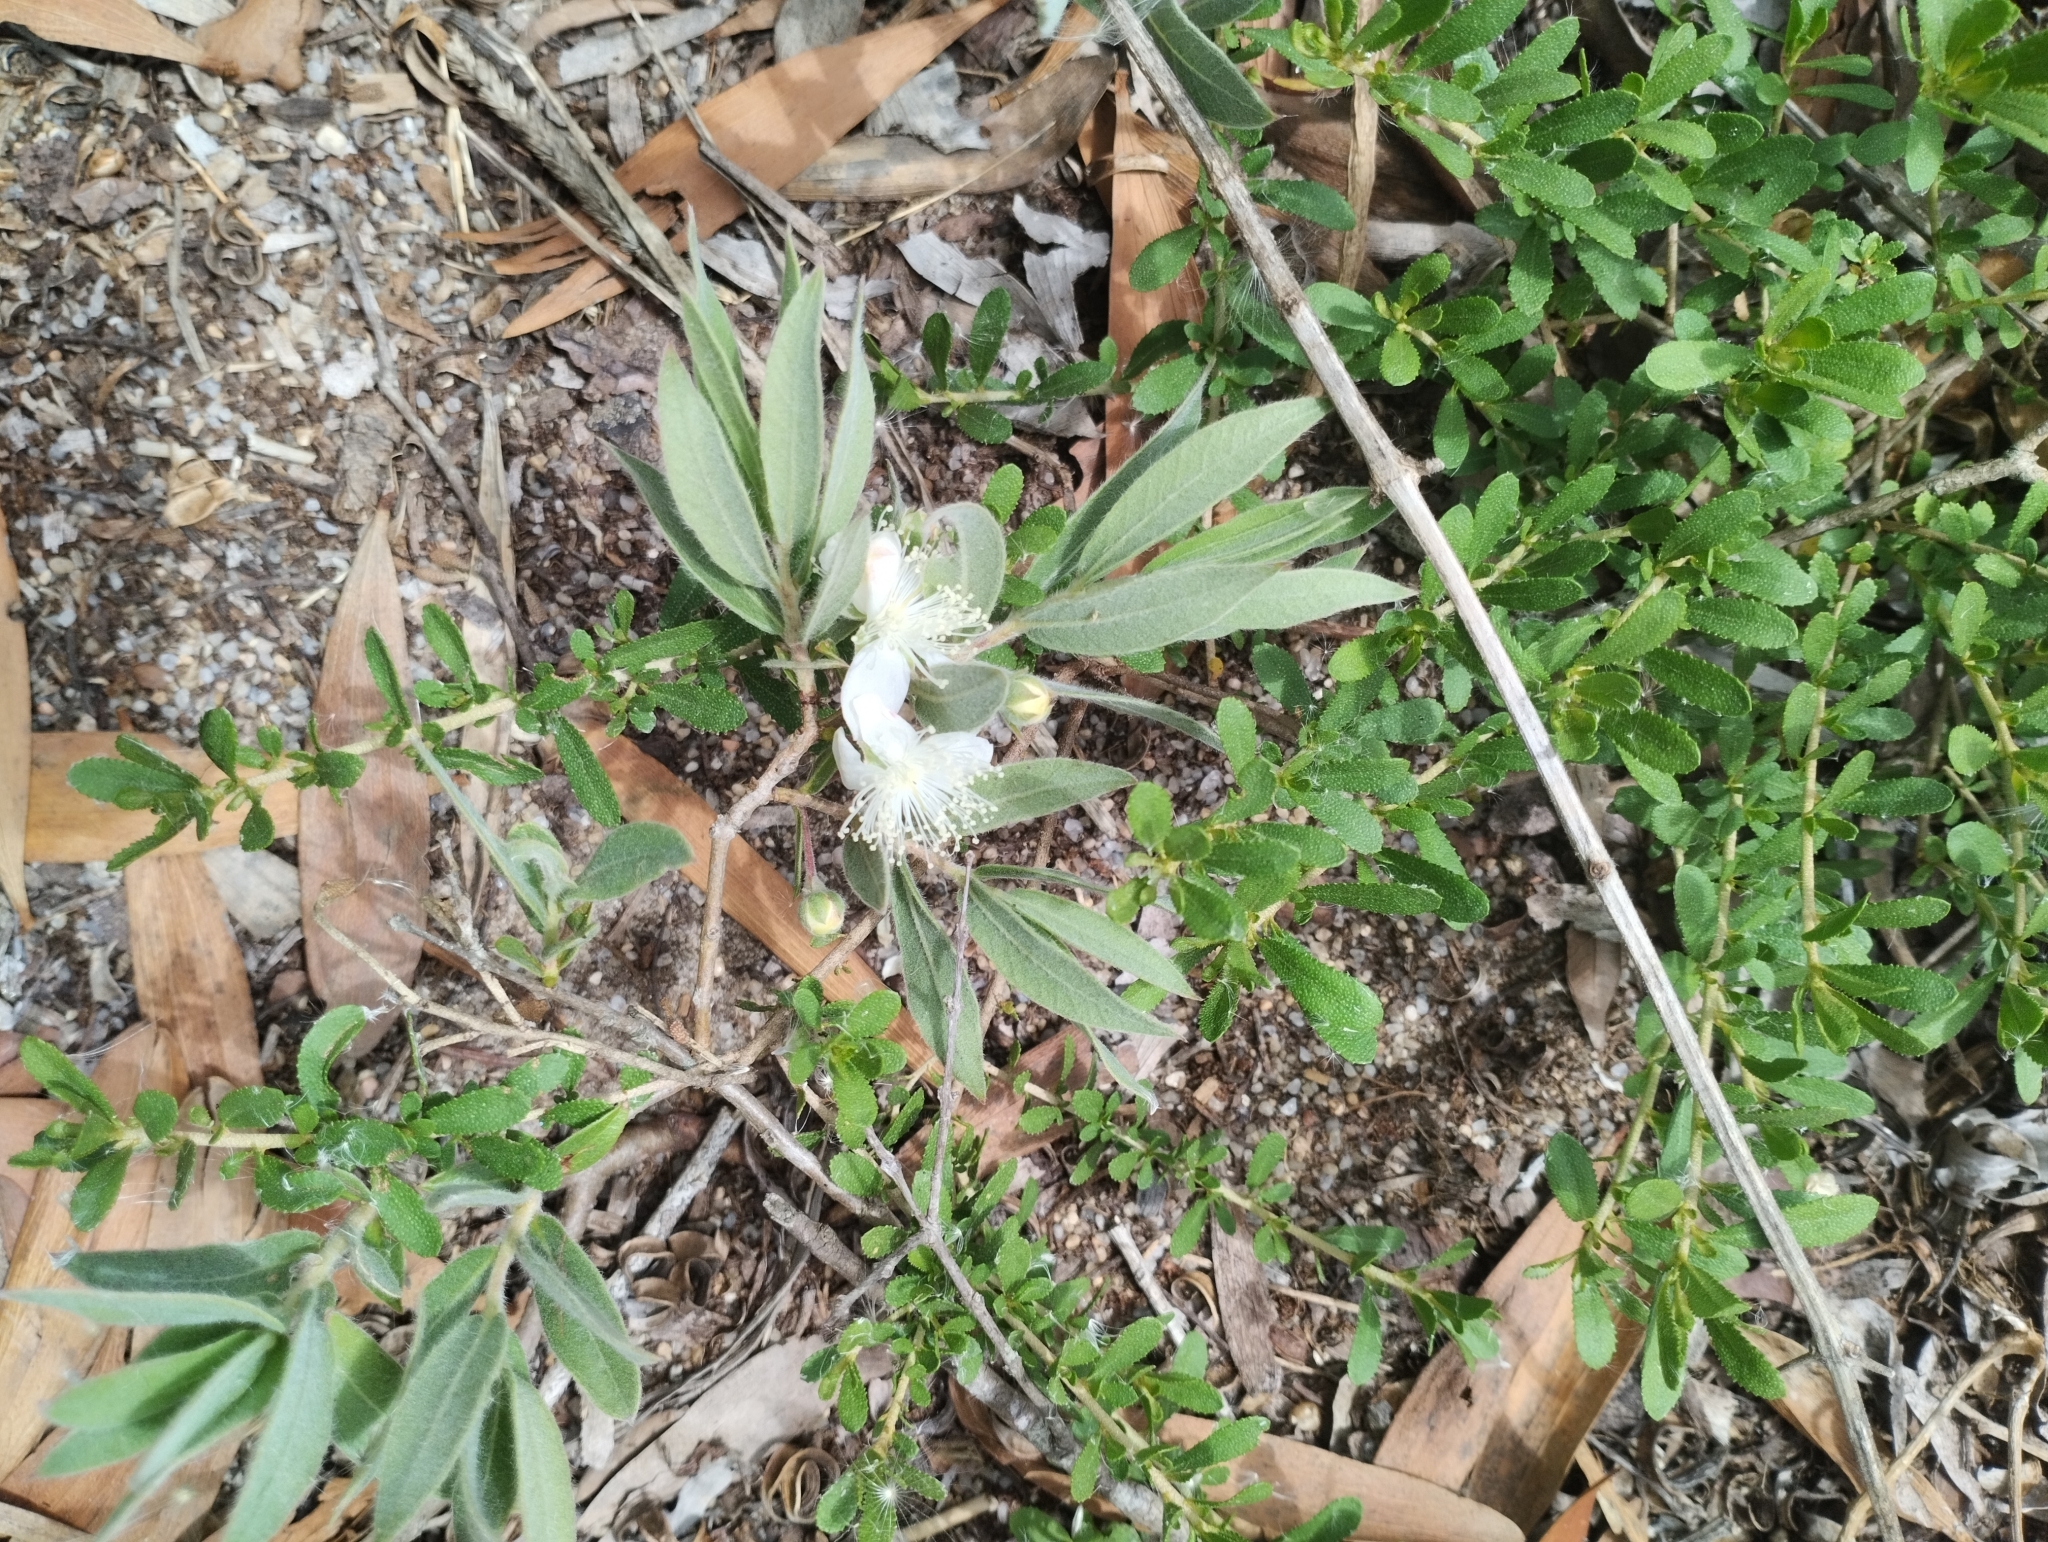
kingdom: Plantae
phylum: Tracheophyta
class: Magnoliopsida
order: Myrtales
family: Myrtaceae
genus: Psidium
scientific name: Psidium salutare
